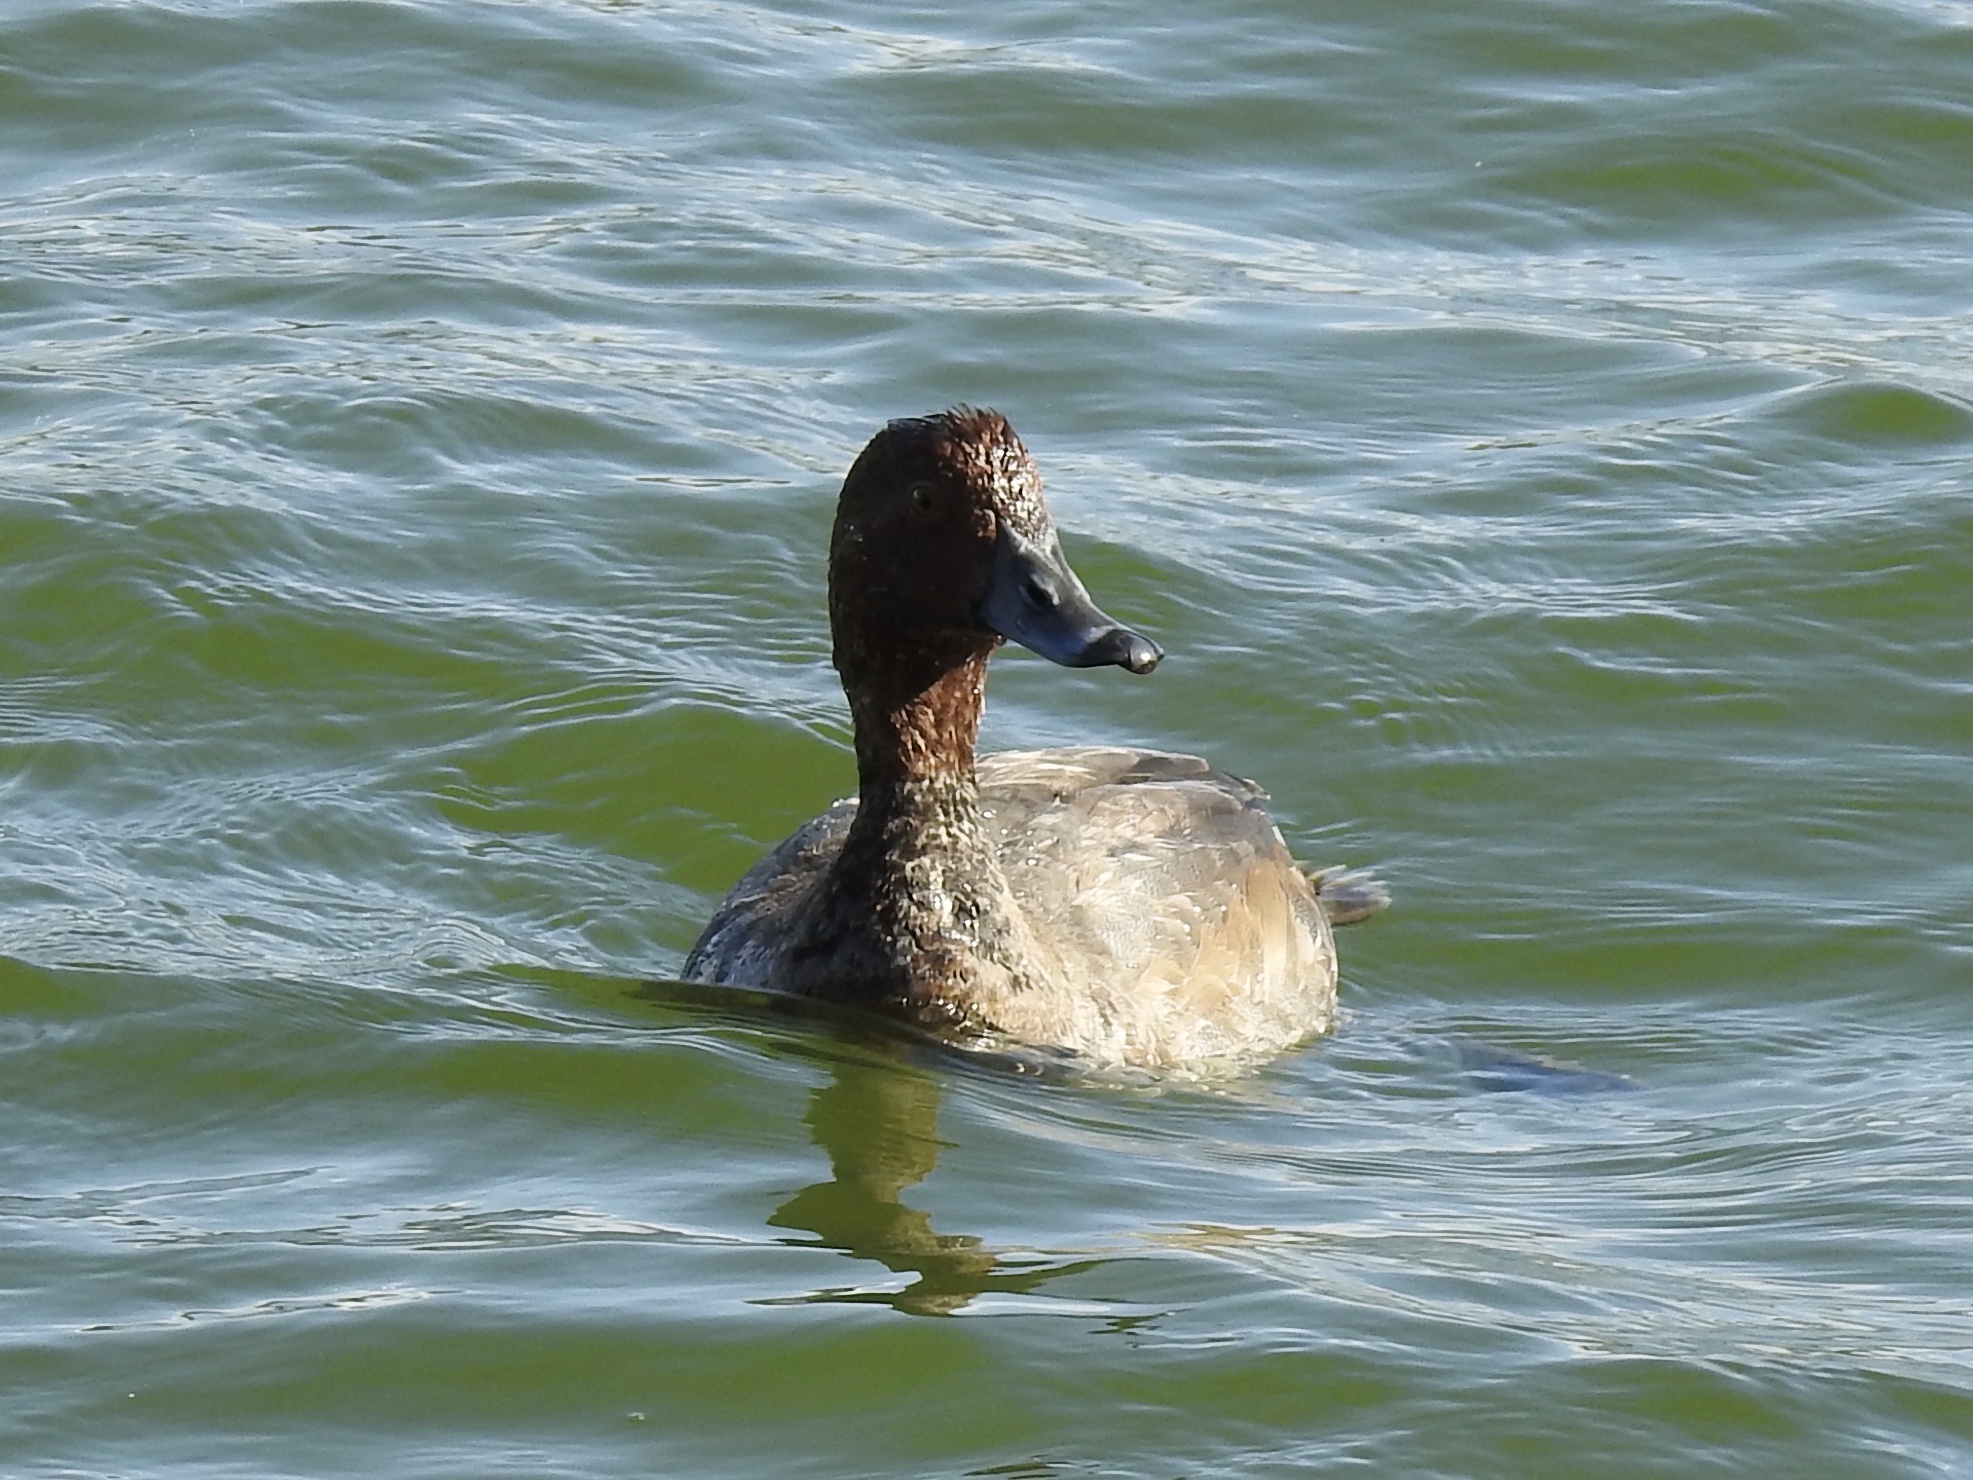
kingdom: Animalia
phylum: Chordata
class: Aves
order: Anseriformes
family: Anatidae
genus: Aythya
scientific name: Aythya americana
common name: Redhead
